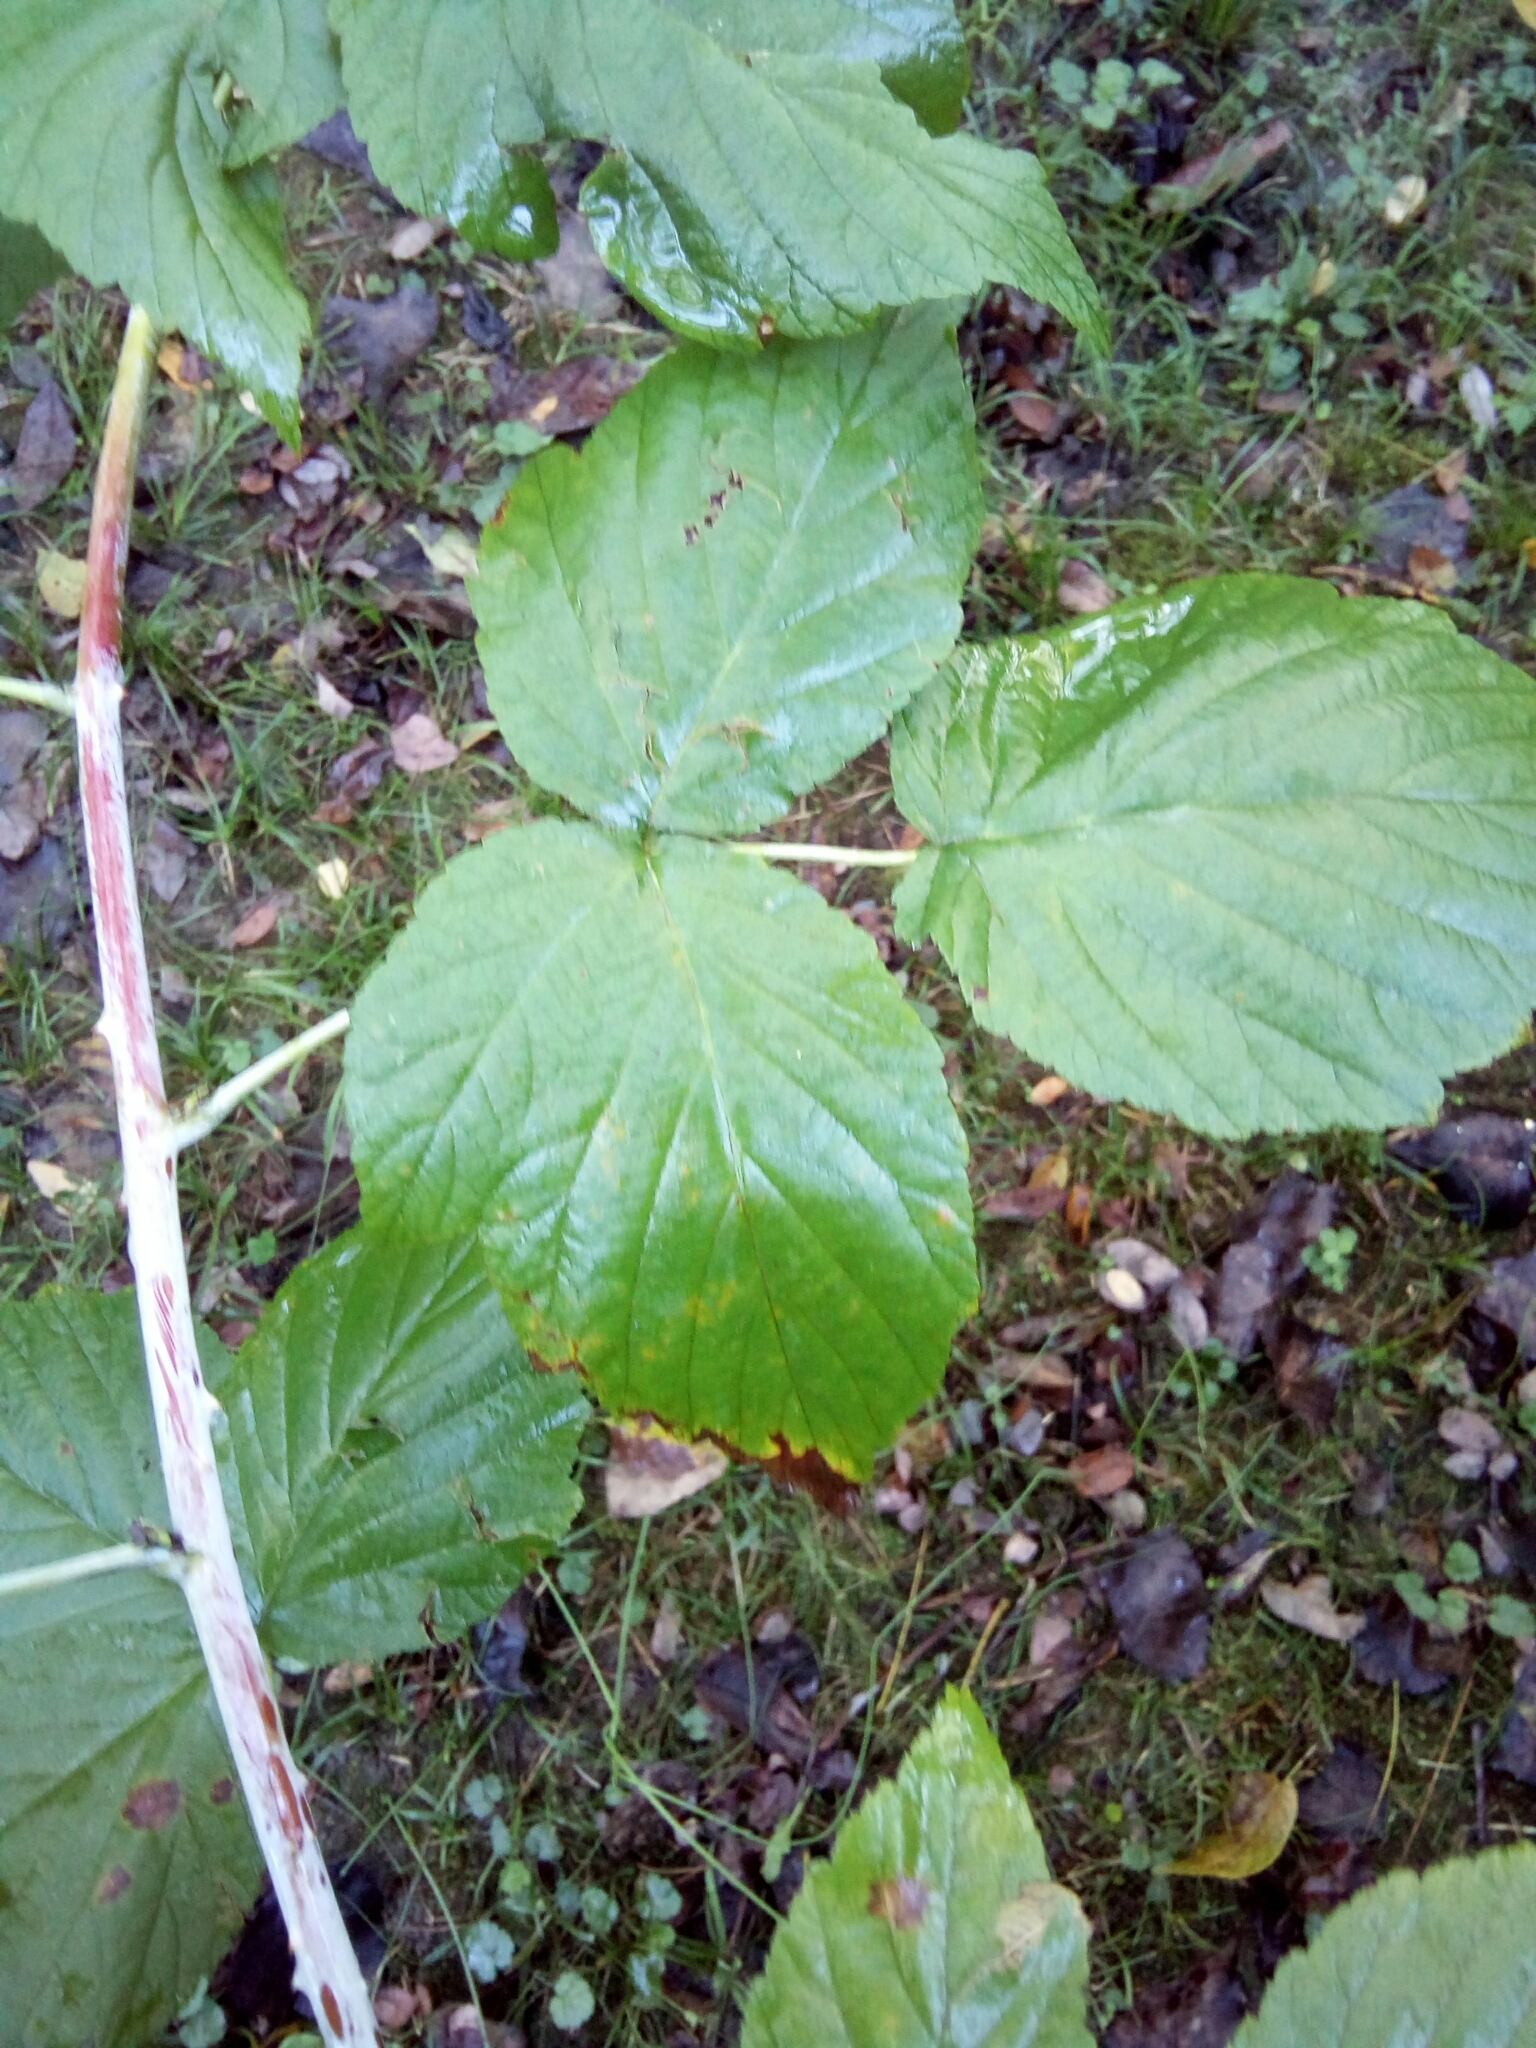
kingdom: Plantae
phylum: Tracheophyta
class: Magnoliopsida
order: Rosales
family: Rosaceae
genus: Rubus
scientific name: Rubus occidentalis
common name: Black raspberry
